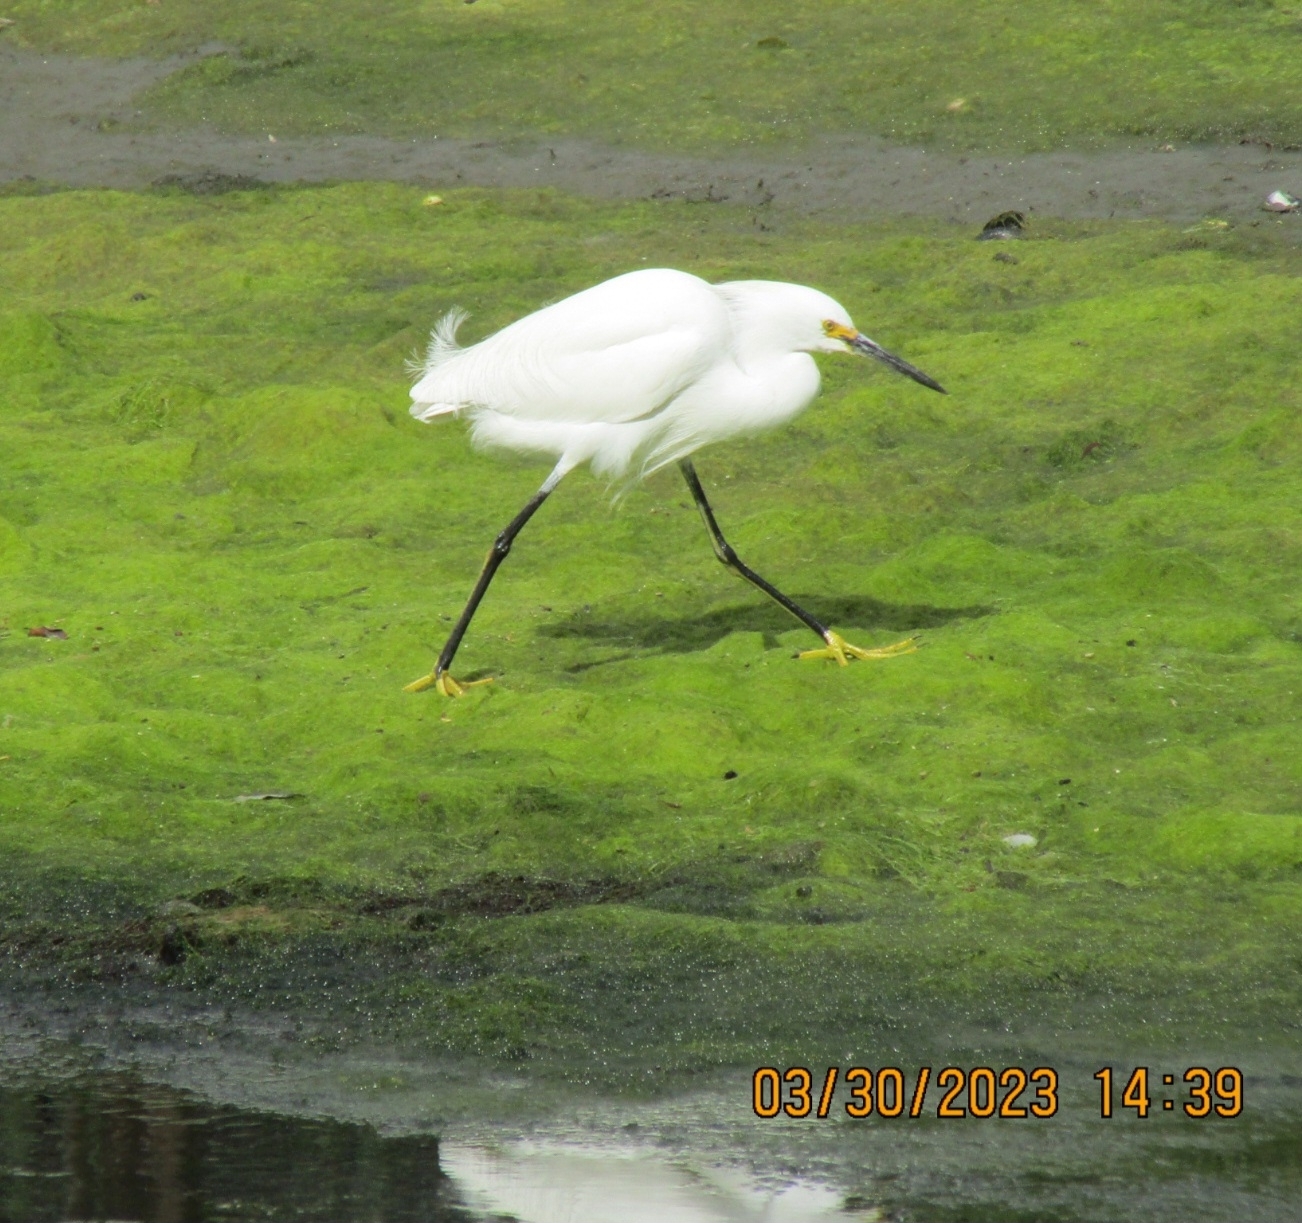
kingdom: Animalia
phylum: Chordata
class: Aves
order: Pelecaniformes
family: Ardeidae
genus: Egretta
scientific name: Egretta thula
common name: Snowy egret
